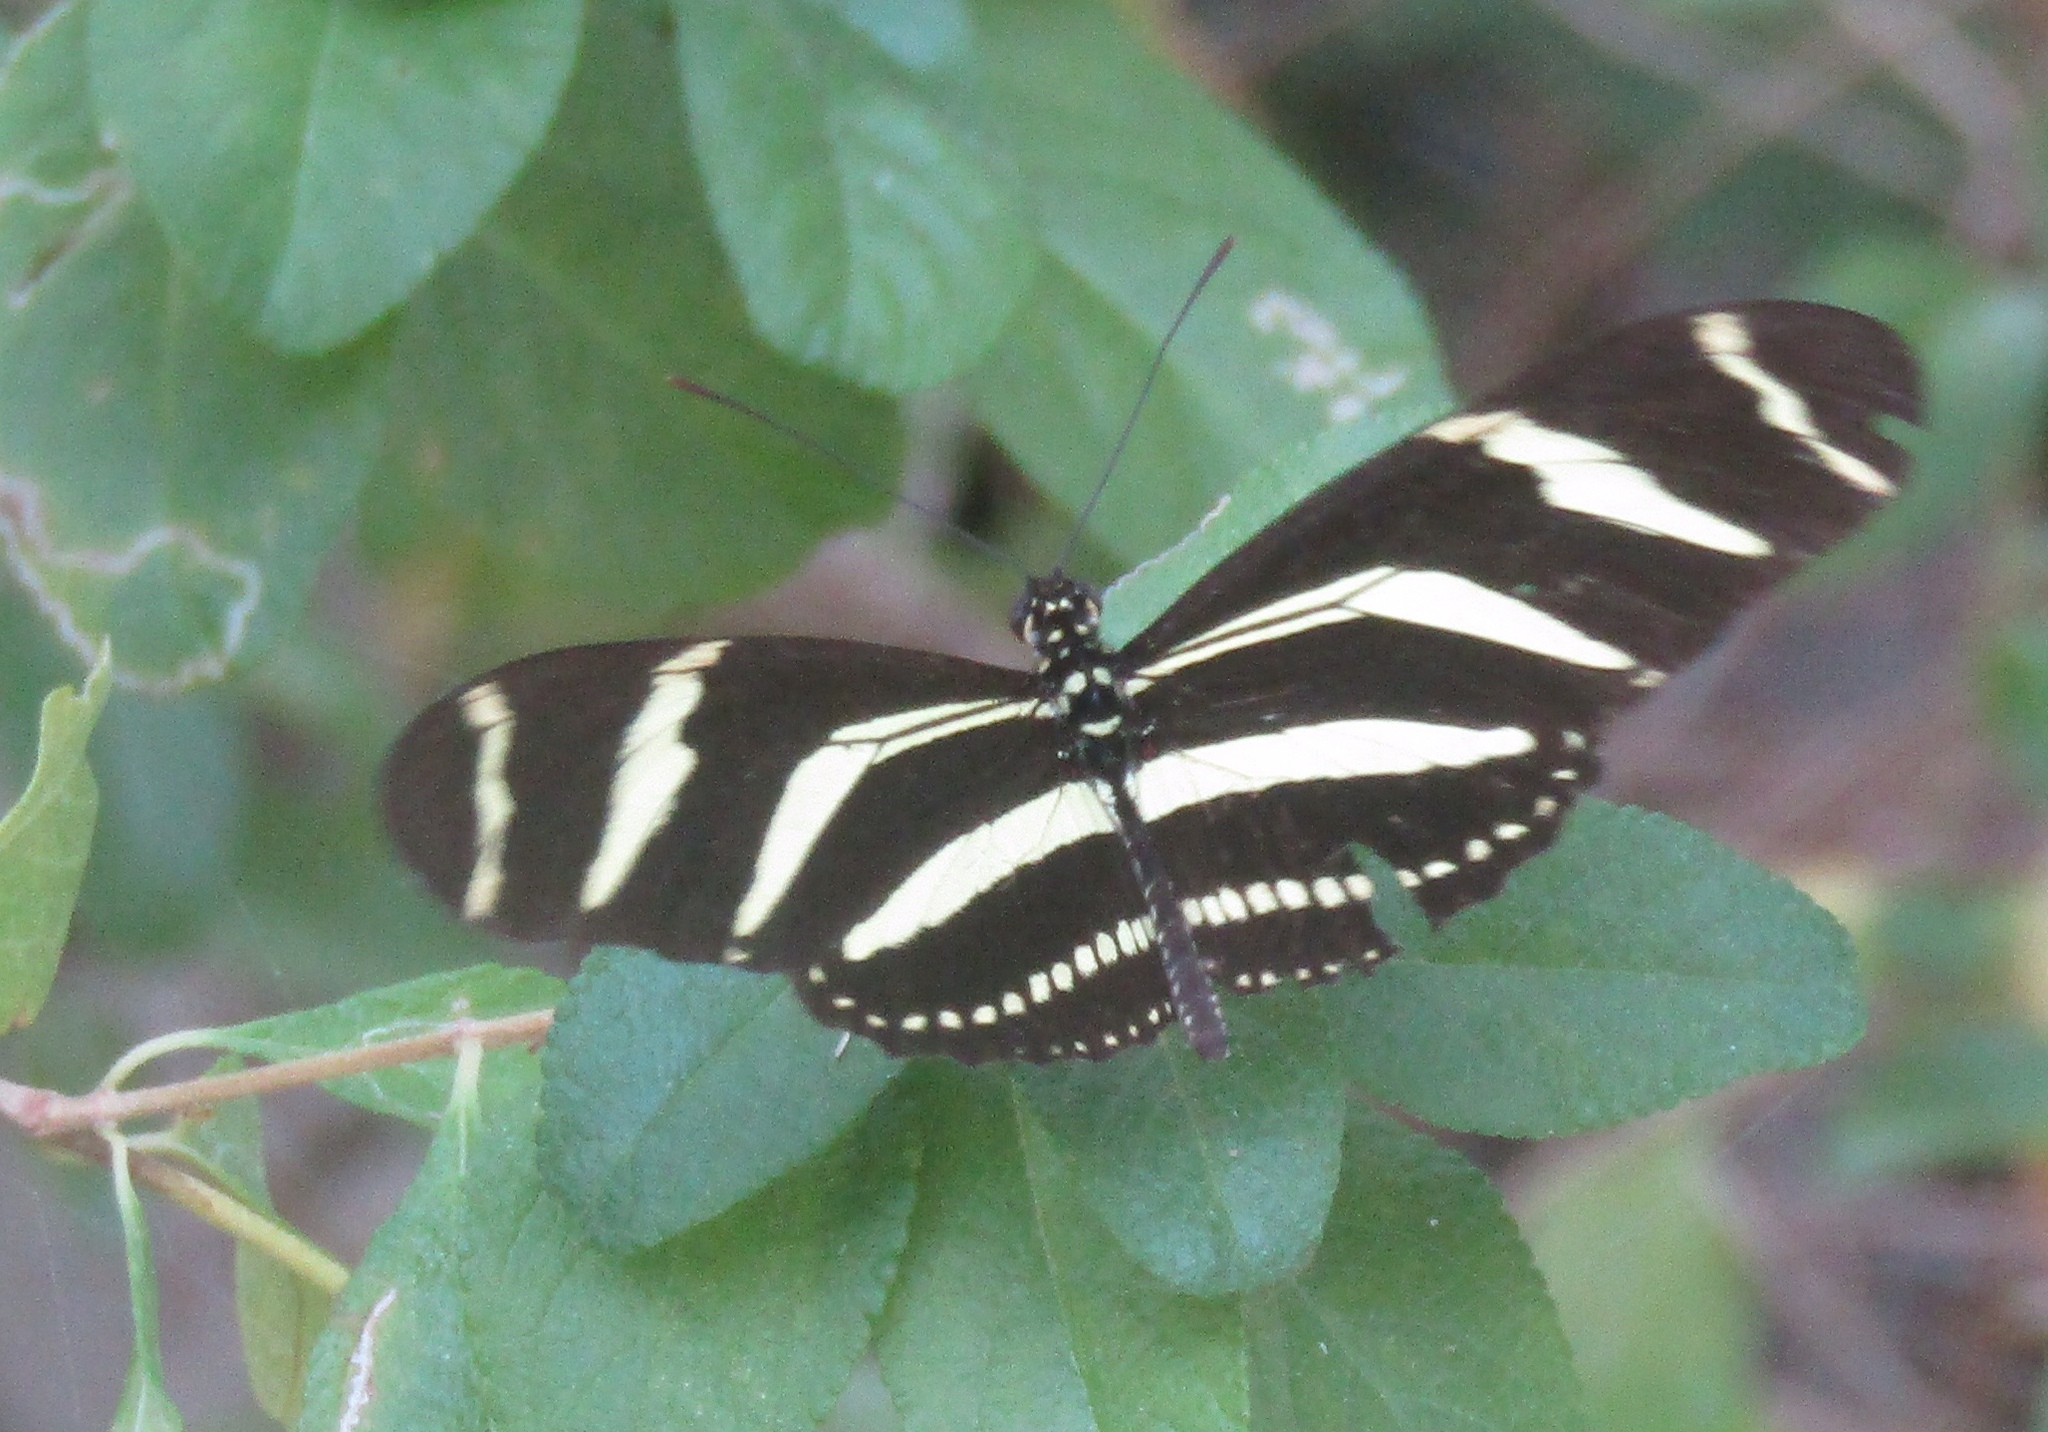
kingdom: Animalia
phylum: Arthropoda
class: Insecta
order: Lepidoptera
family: Nymphalidae
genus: Heliconius
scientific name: Heliconius charithonia
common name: Zebra long wing
